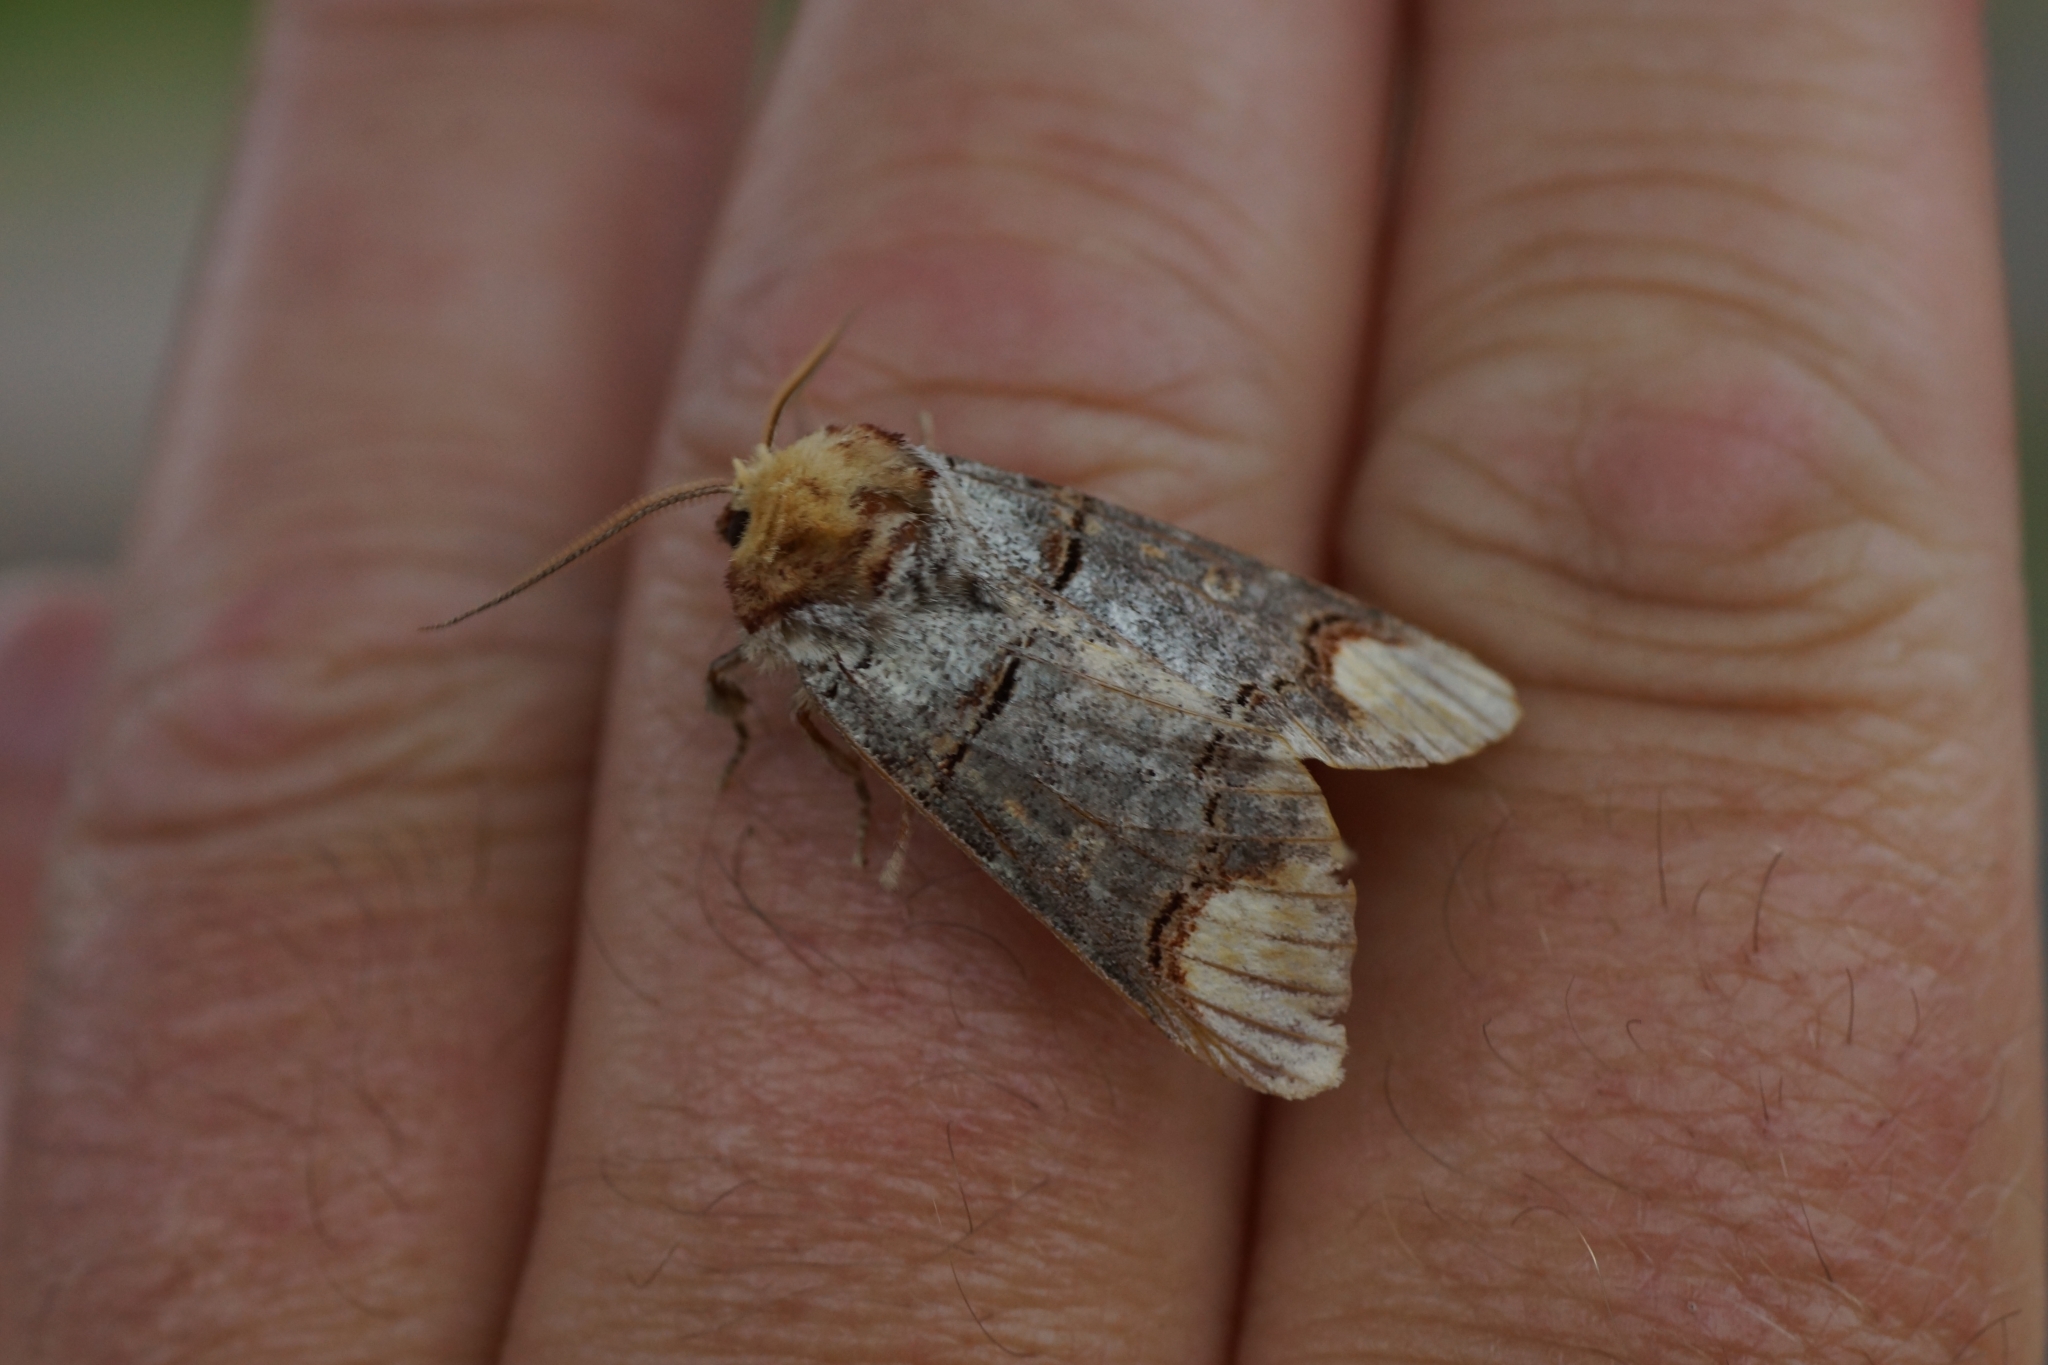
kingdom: Animalia
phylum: Arthropoda
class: Insecta
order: Lepidoptera
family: Notodontidae
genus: Phalera
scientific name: Phalera bucephala
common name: Buff-tip
